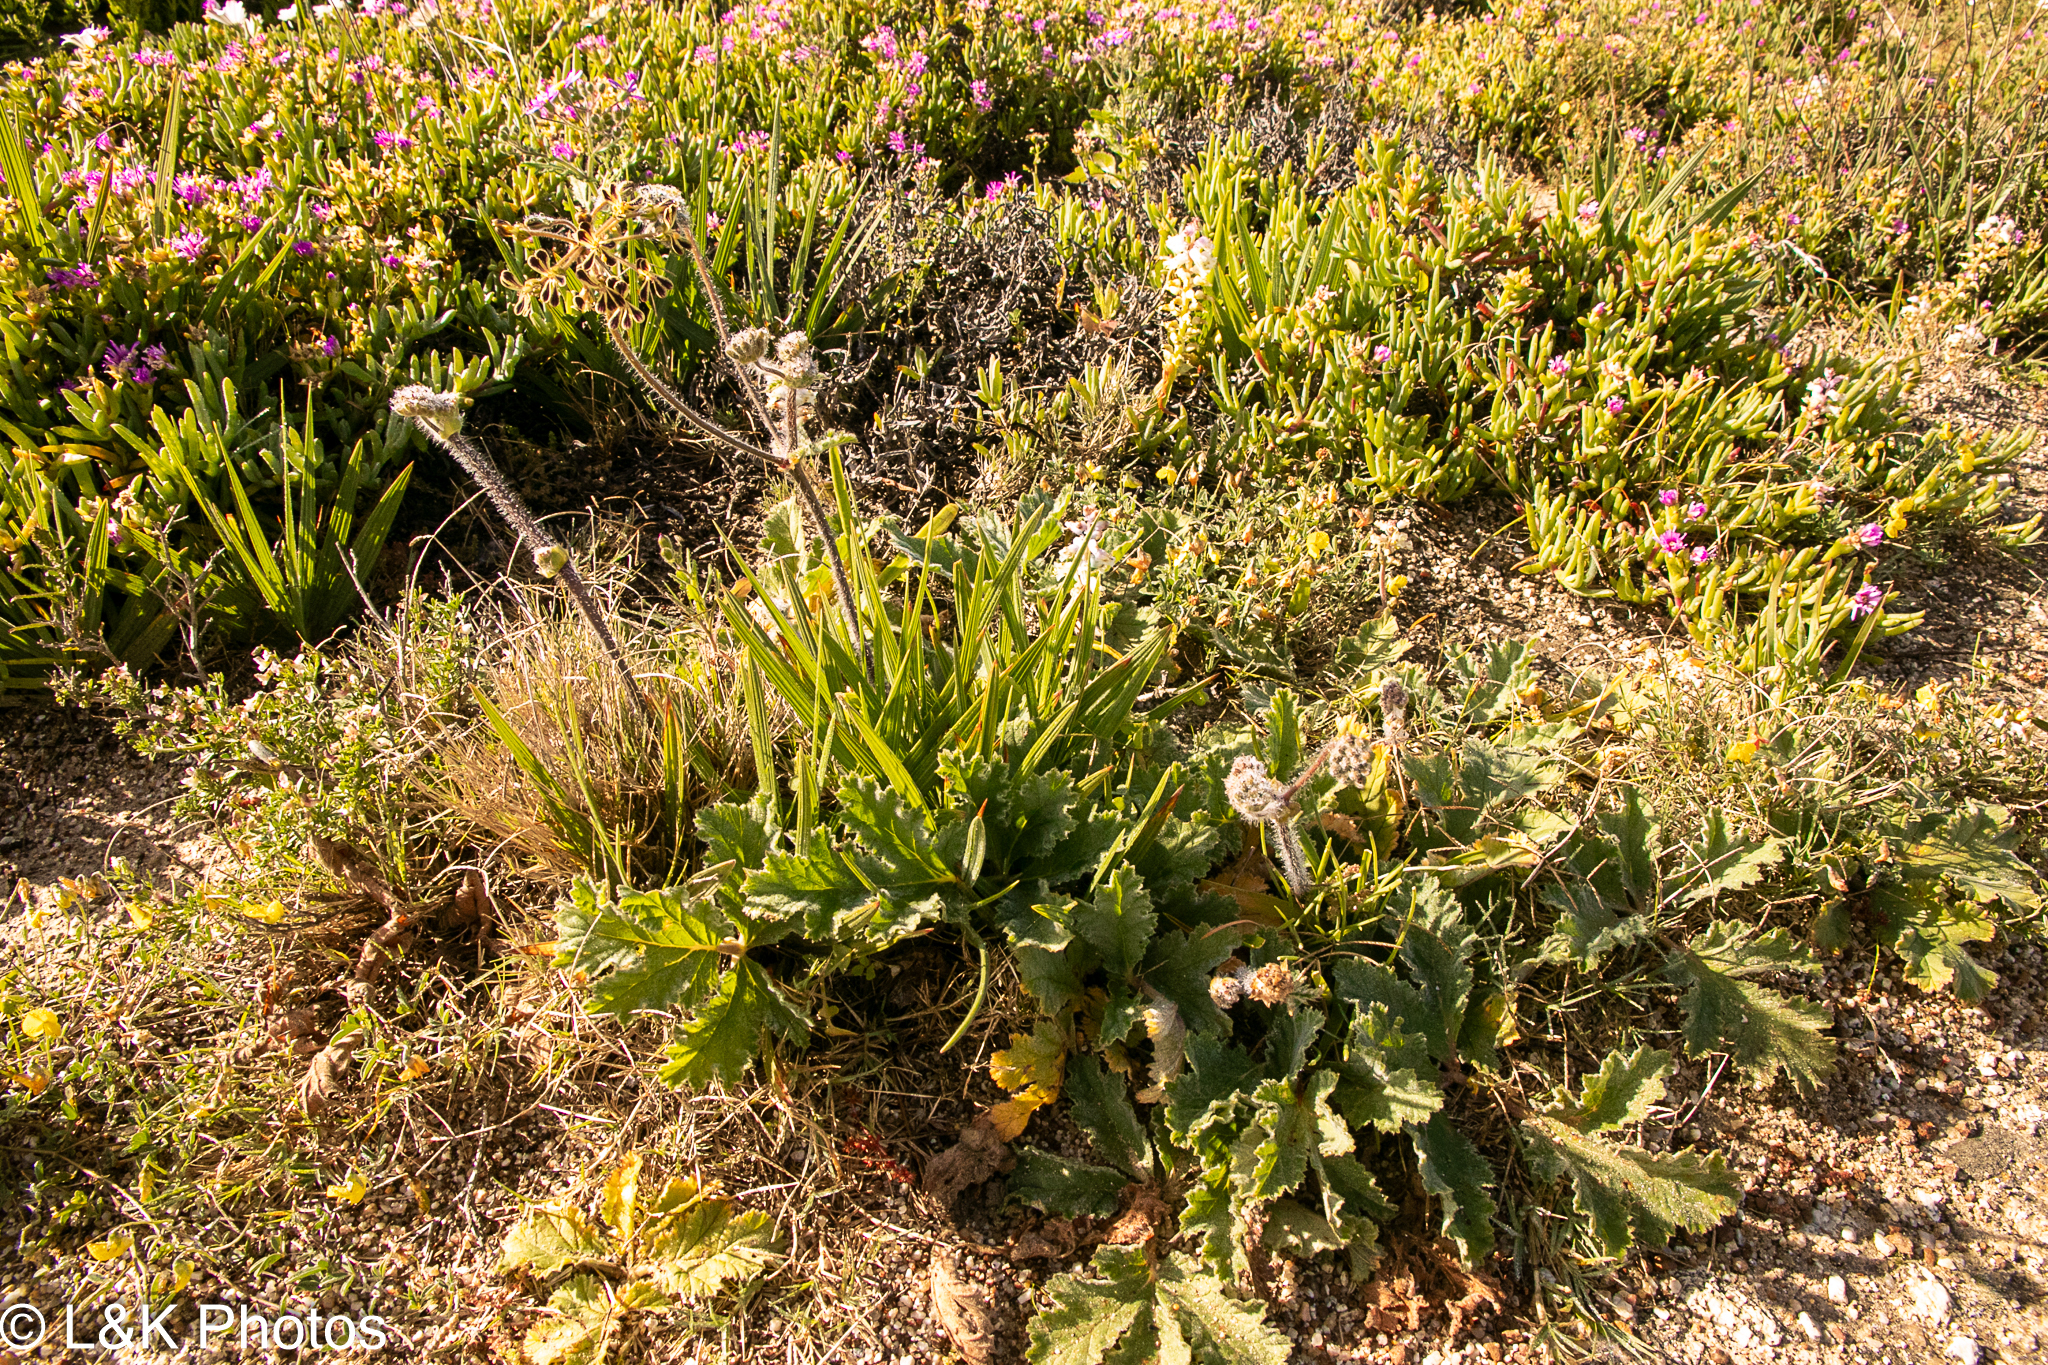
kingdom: Plantae
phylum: Tracheophyta
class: Magnoliopsida
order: Geraniales
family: Geraniaceae
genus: Pelargonium
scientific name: Pelargonium lobatum
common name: Vine-leaf pelargonium
